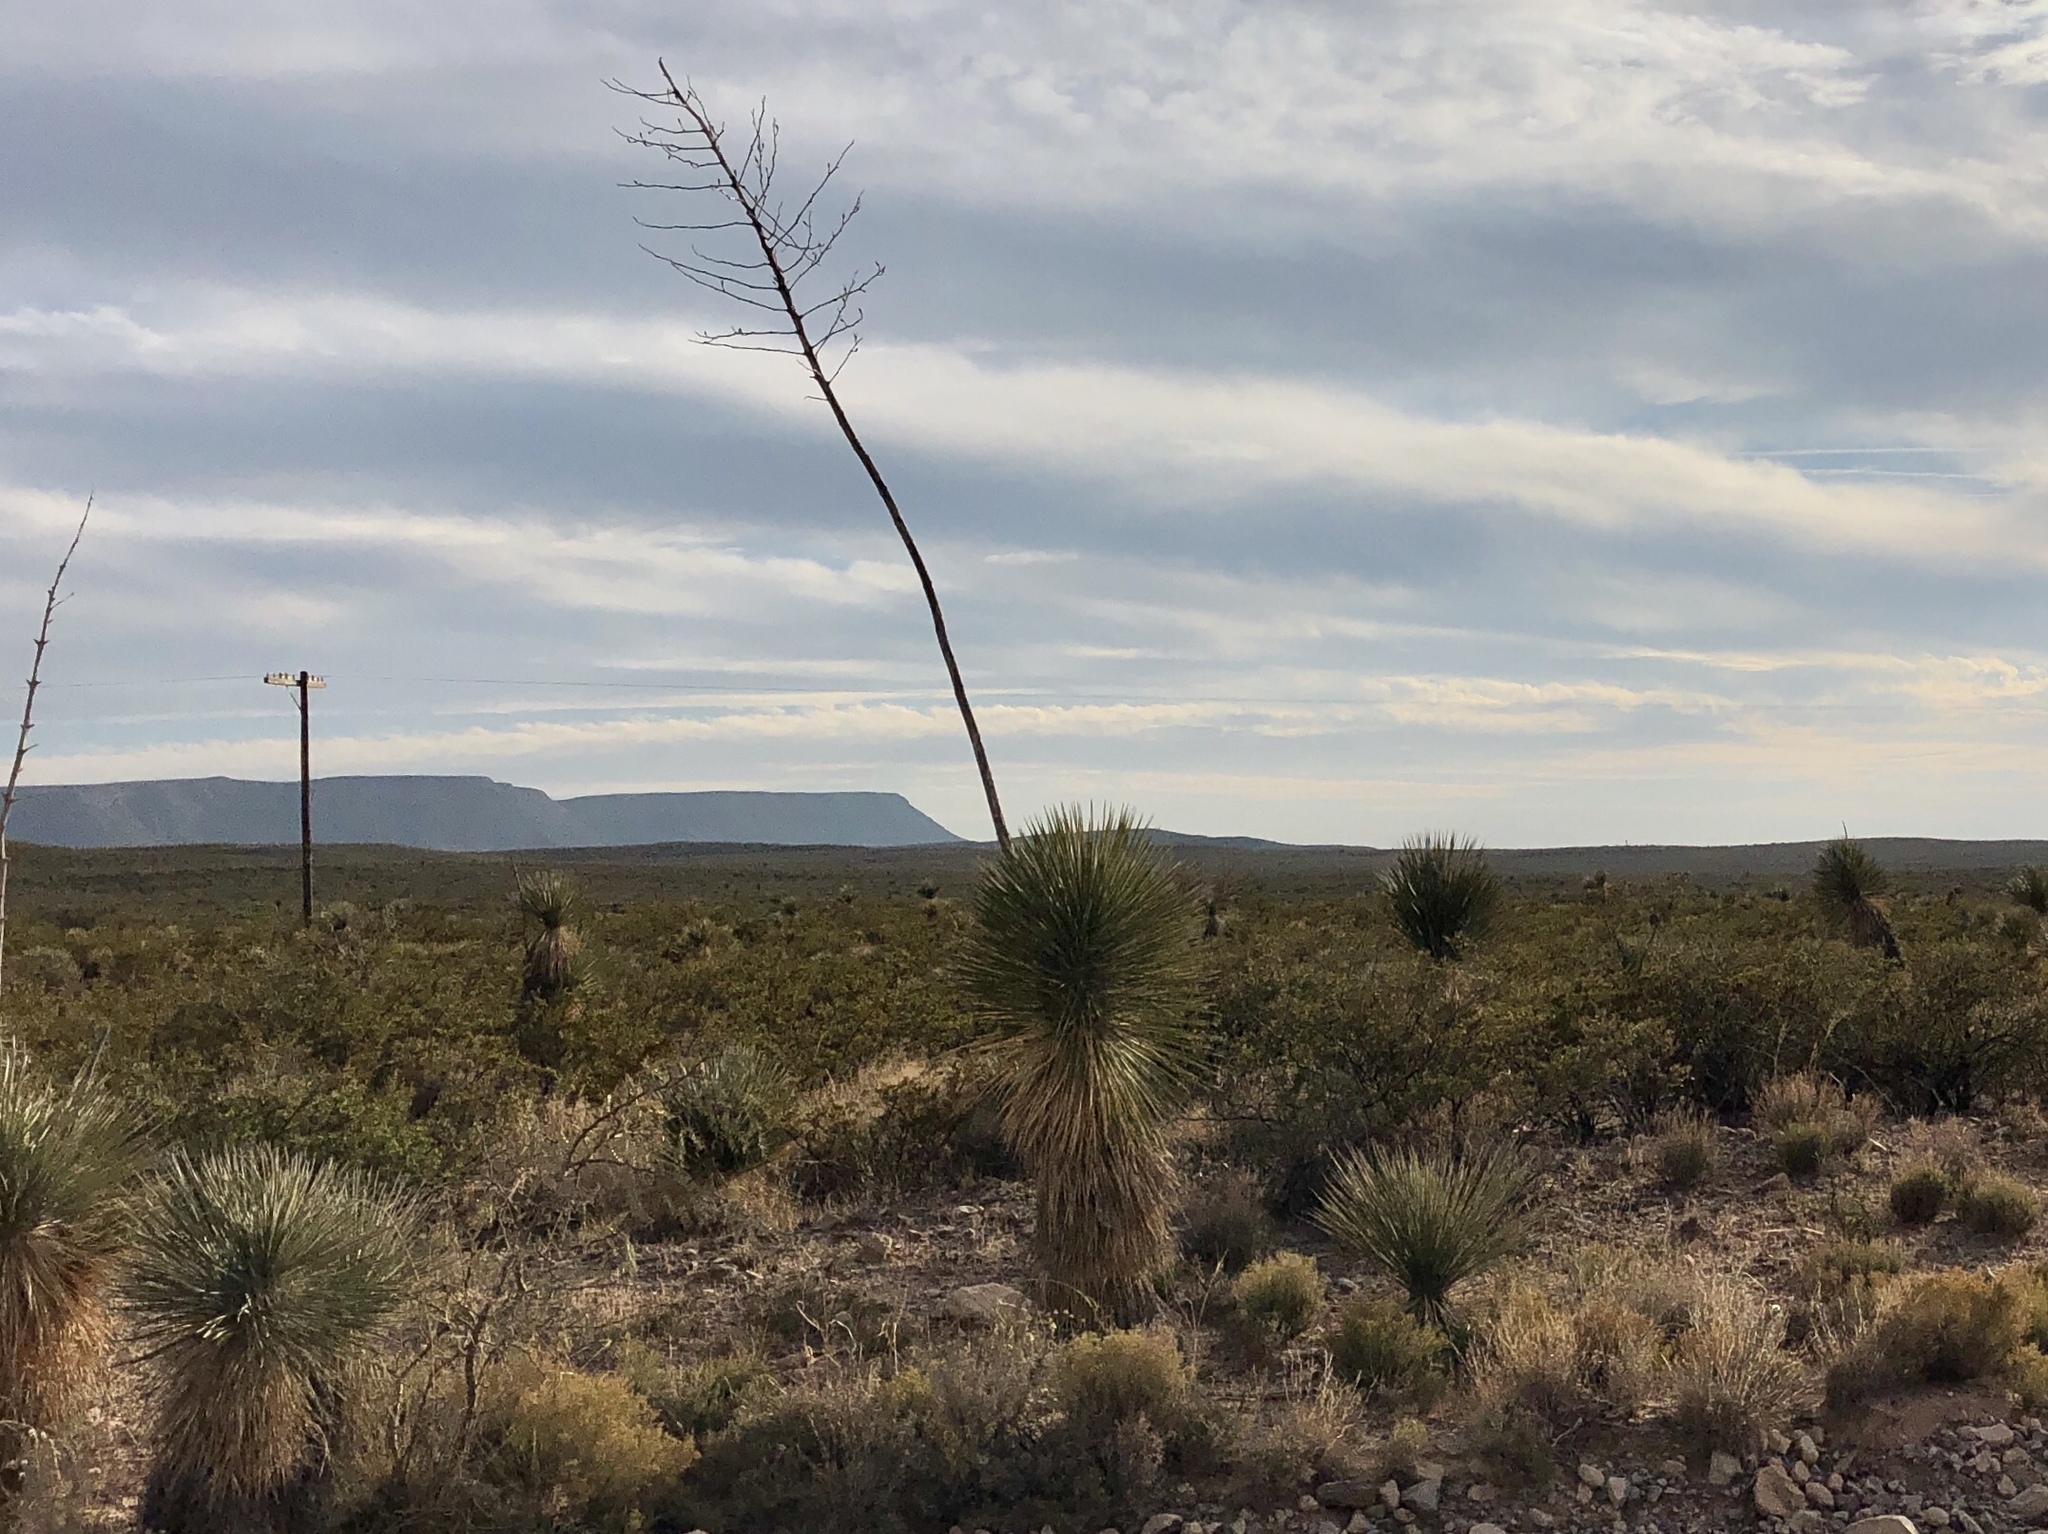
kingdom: Plantae
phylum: Tracheophyta
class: Liliopsida
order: Asparagales
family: Asparagaceae
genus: Yucca
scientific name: Yucca elata
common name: Palmella
